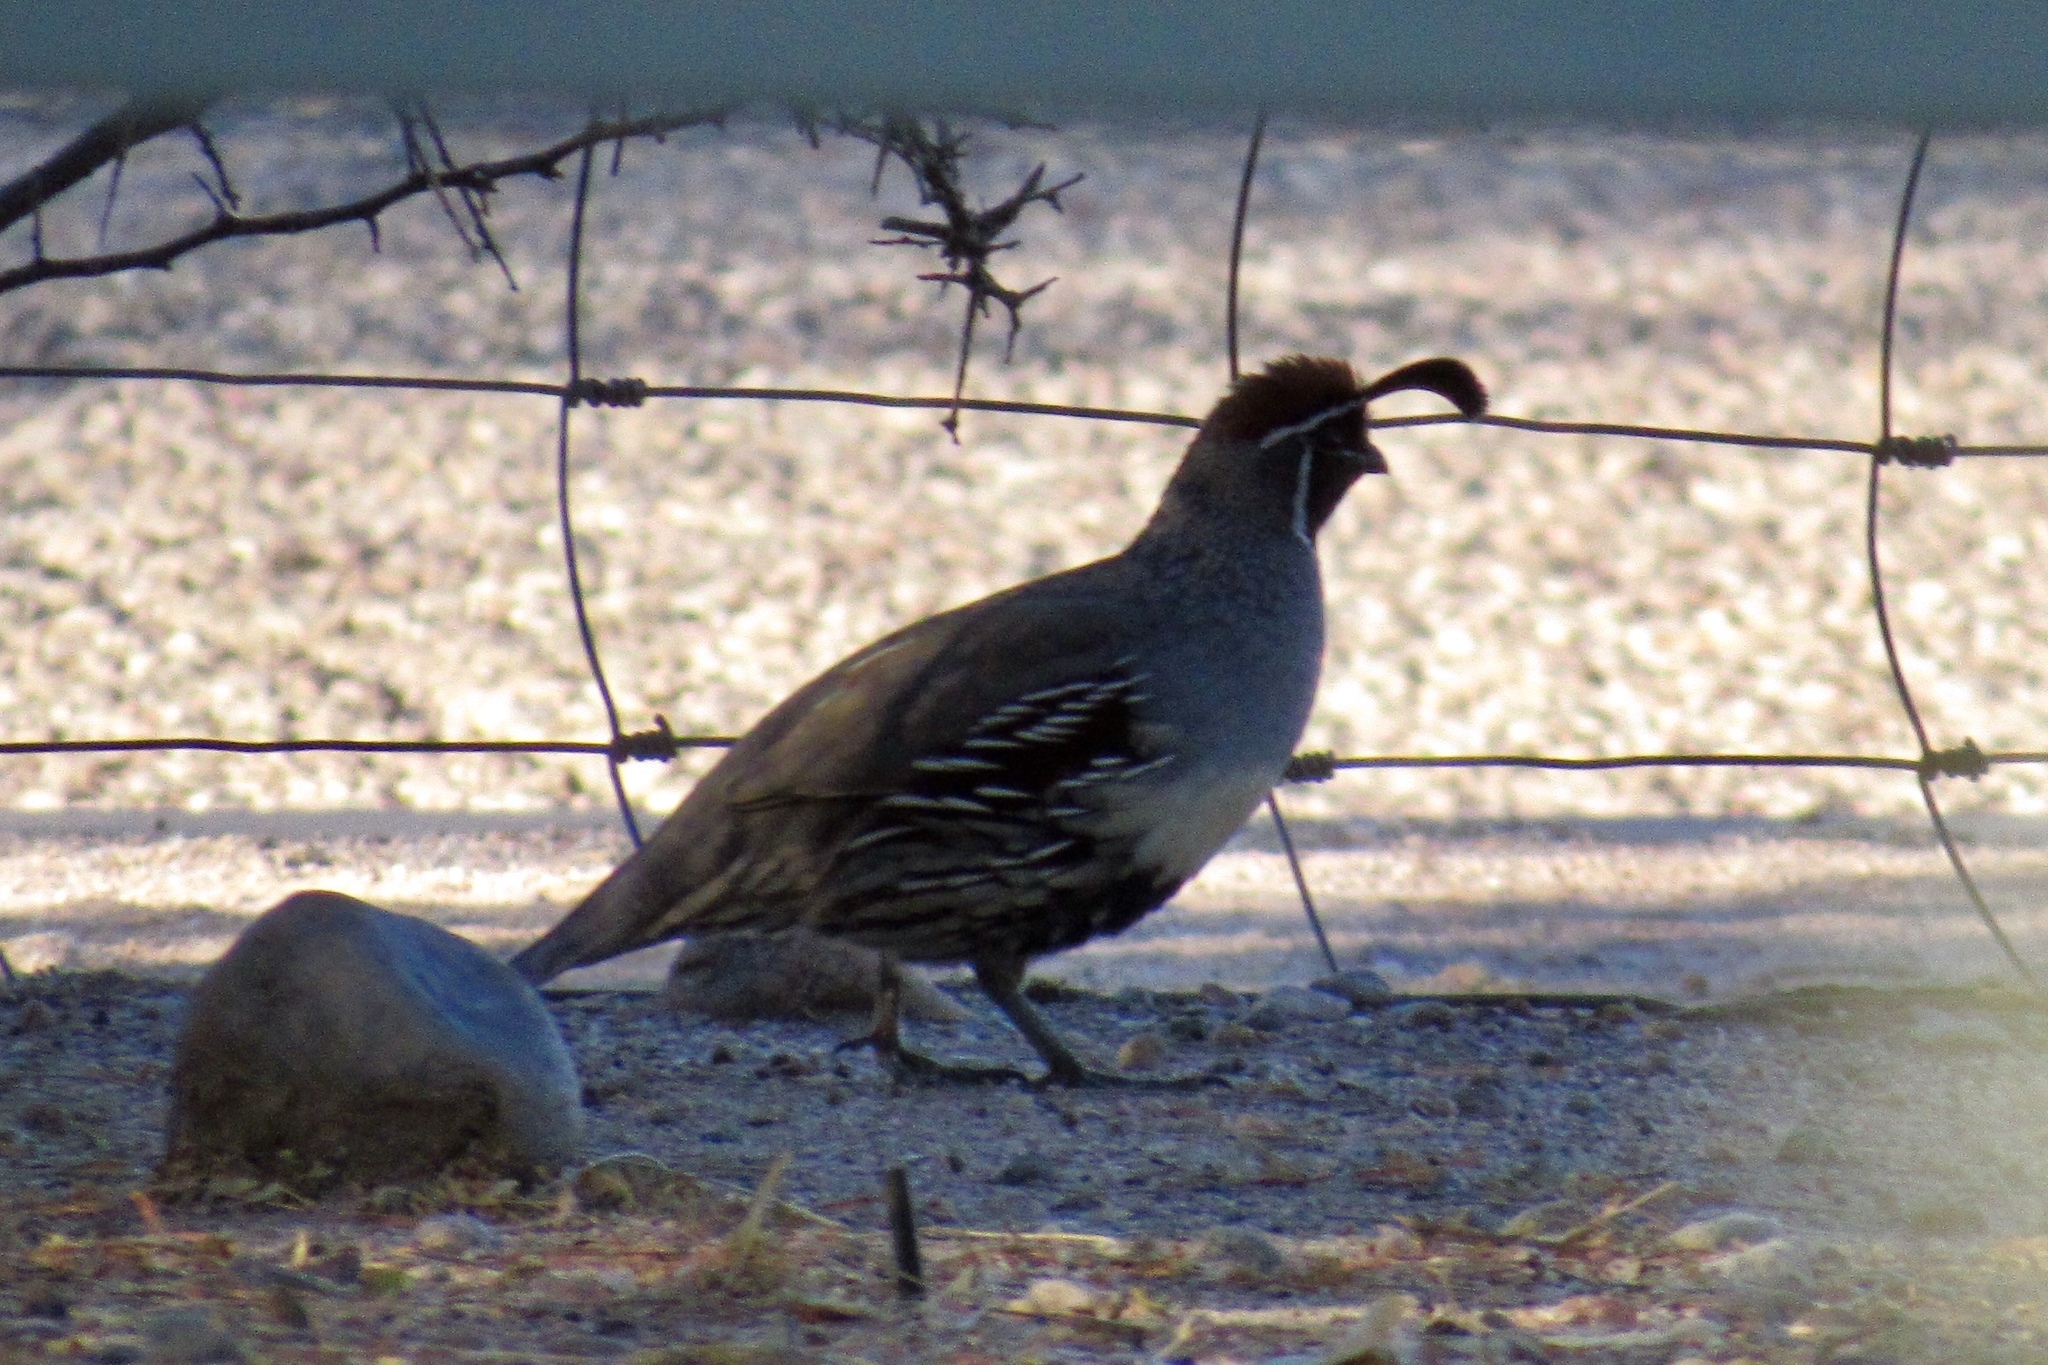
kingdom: Animalia
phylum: Chordata
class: Aves
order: Galliformes
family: Odontophoridae
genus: Callipepla
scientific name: Callipepla gambelii
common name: Gambel's quail
